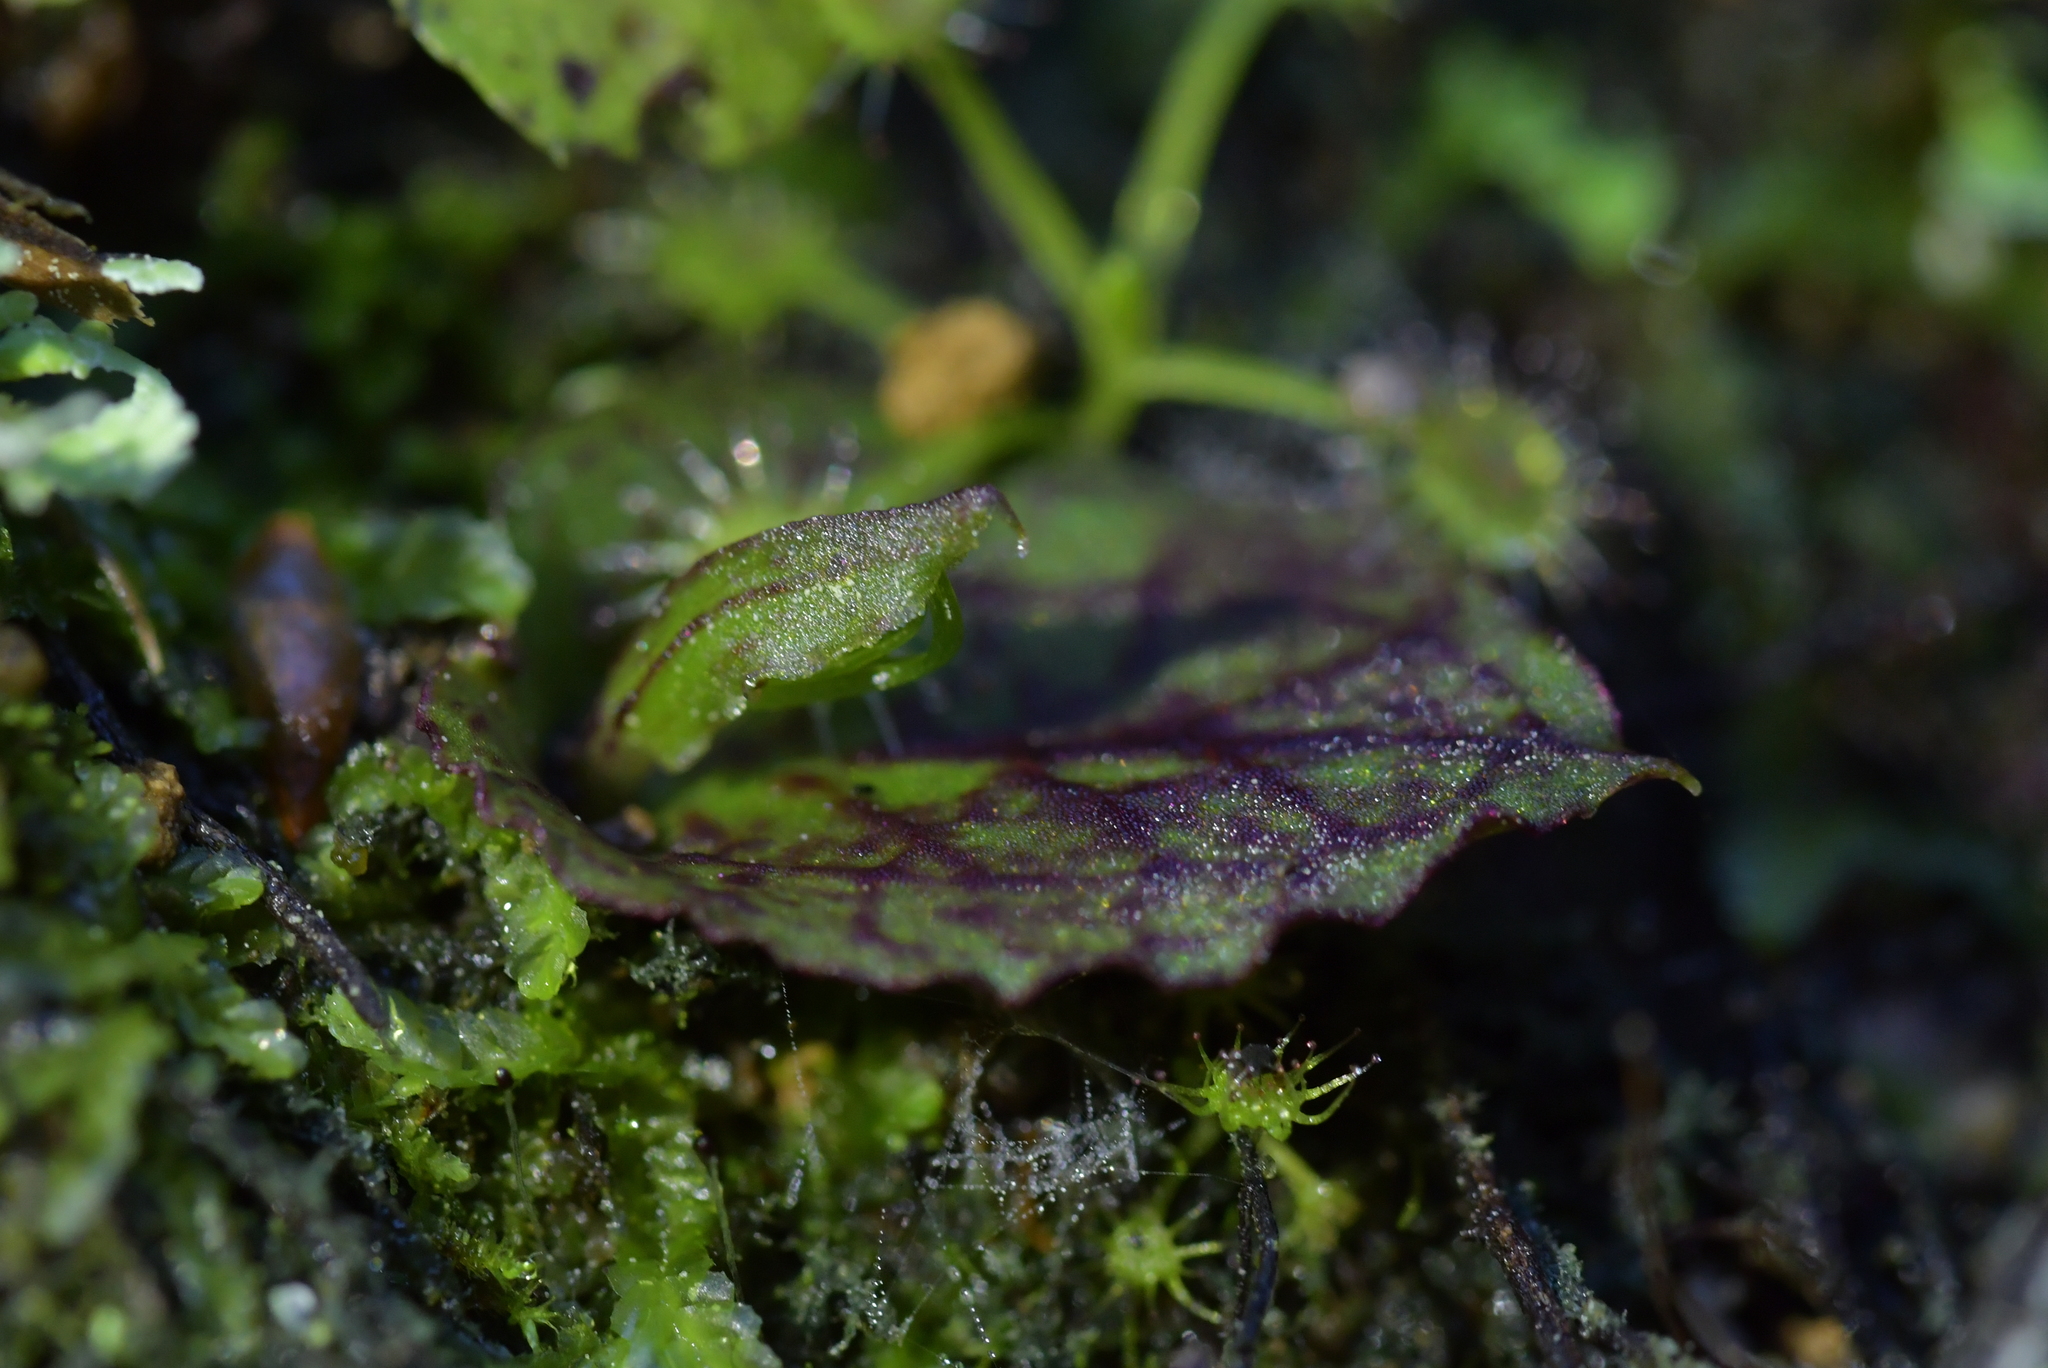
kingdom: Plantae
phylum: Tracheophyta
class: Liliopsida
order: Asparagales
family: Orchidaceae
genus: Corybas
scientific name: Corybas oblongus
